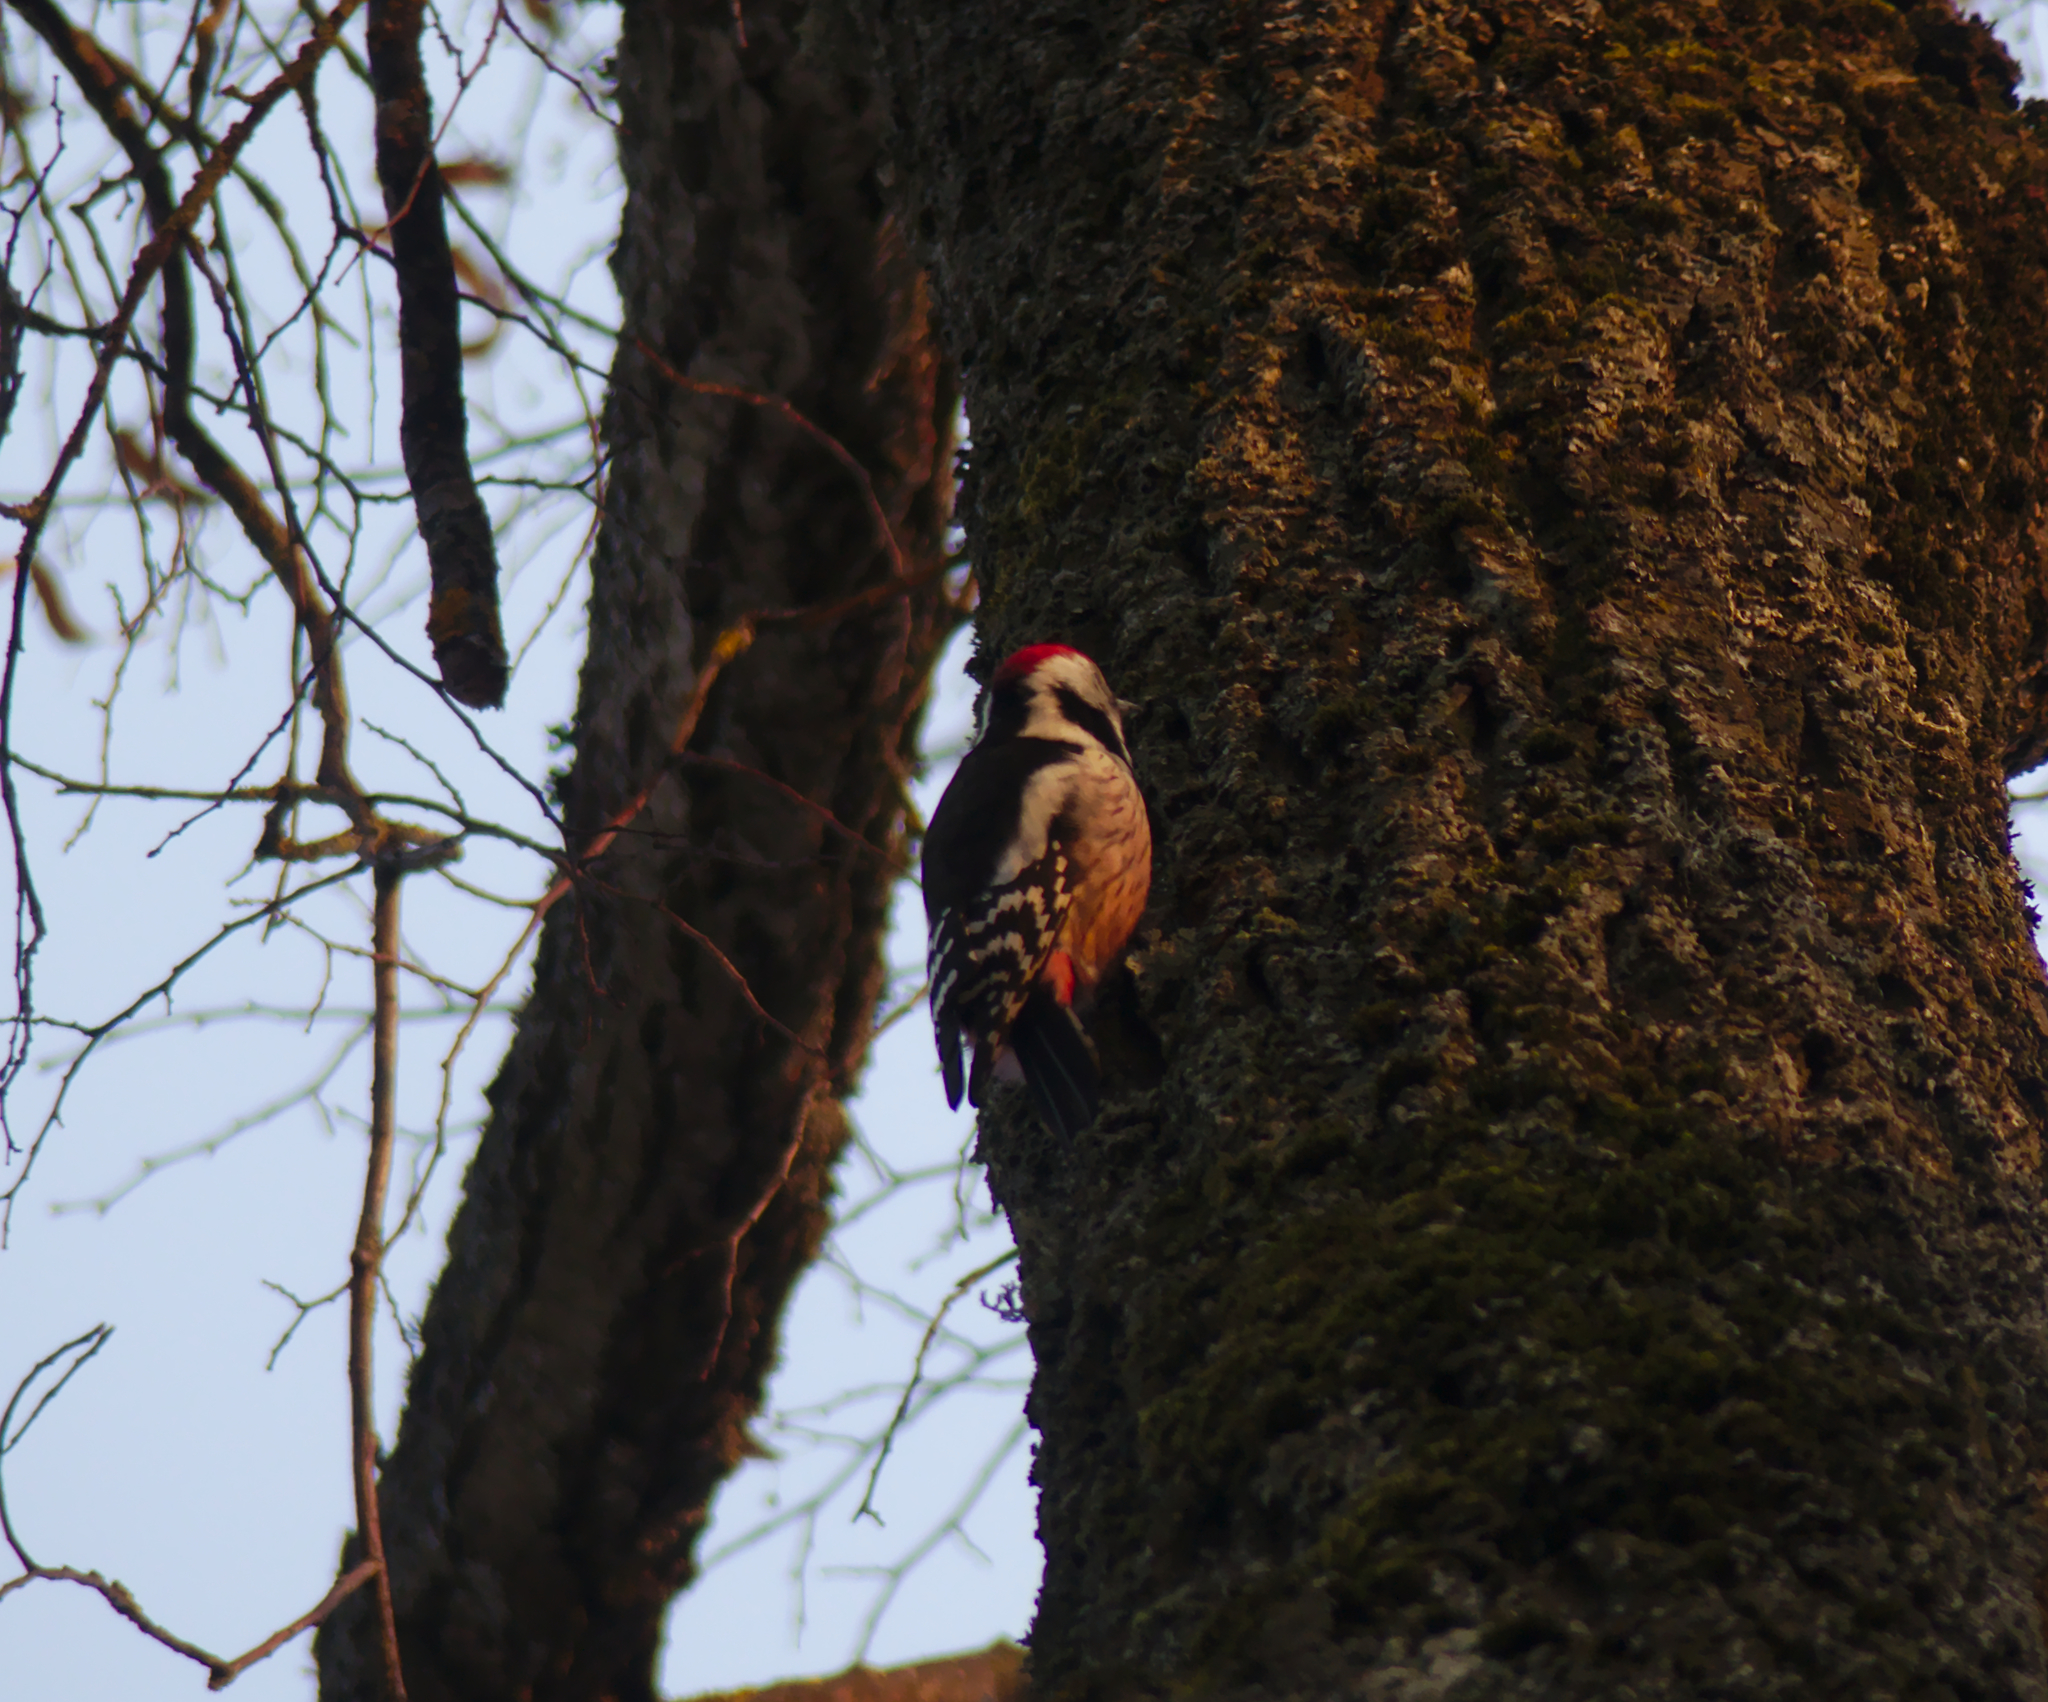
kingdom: Animalia
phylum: Chordata
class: Aves
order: Piciformes
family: Picidae
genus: Dendrocoptes
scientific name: Dendrocoptes medius
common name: Middle spotted woodpecker
